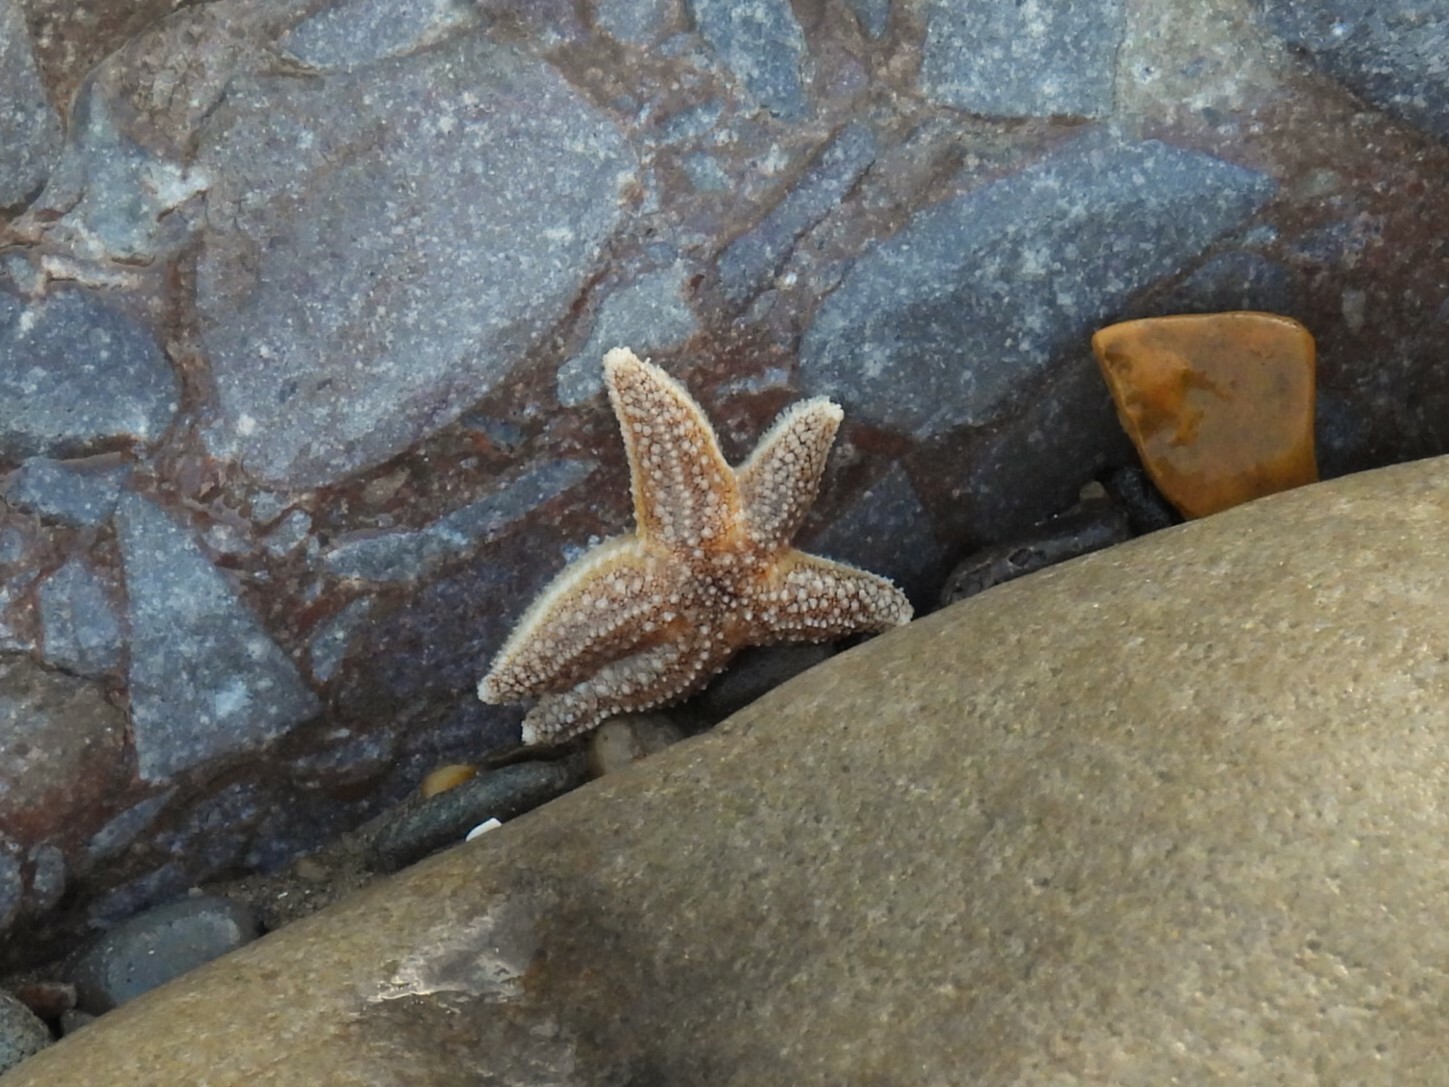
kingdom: Animalia
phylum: Echinodermata
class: Asteroidea
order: Forcipulatida
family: Asteriidae
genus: Asterias
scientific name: Asterias rubens
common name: Common starfish
